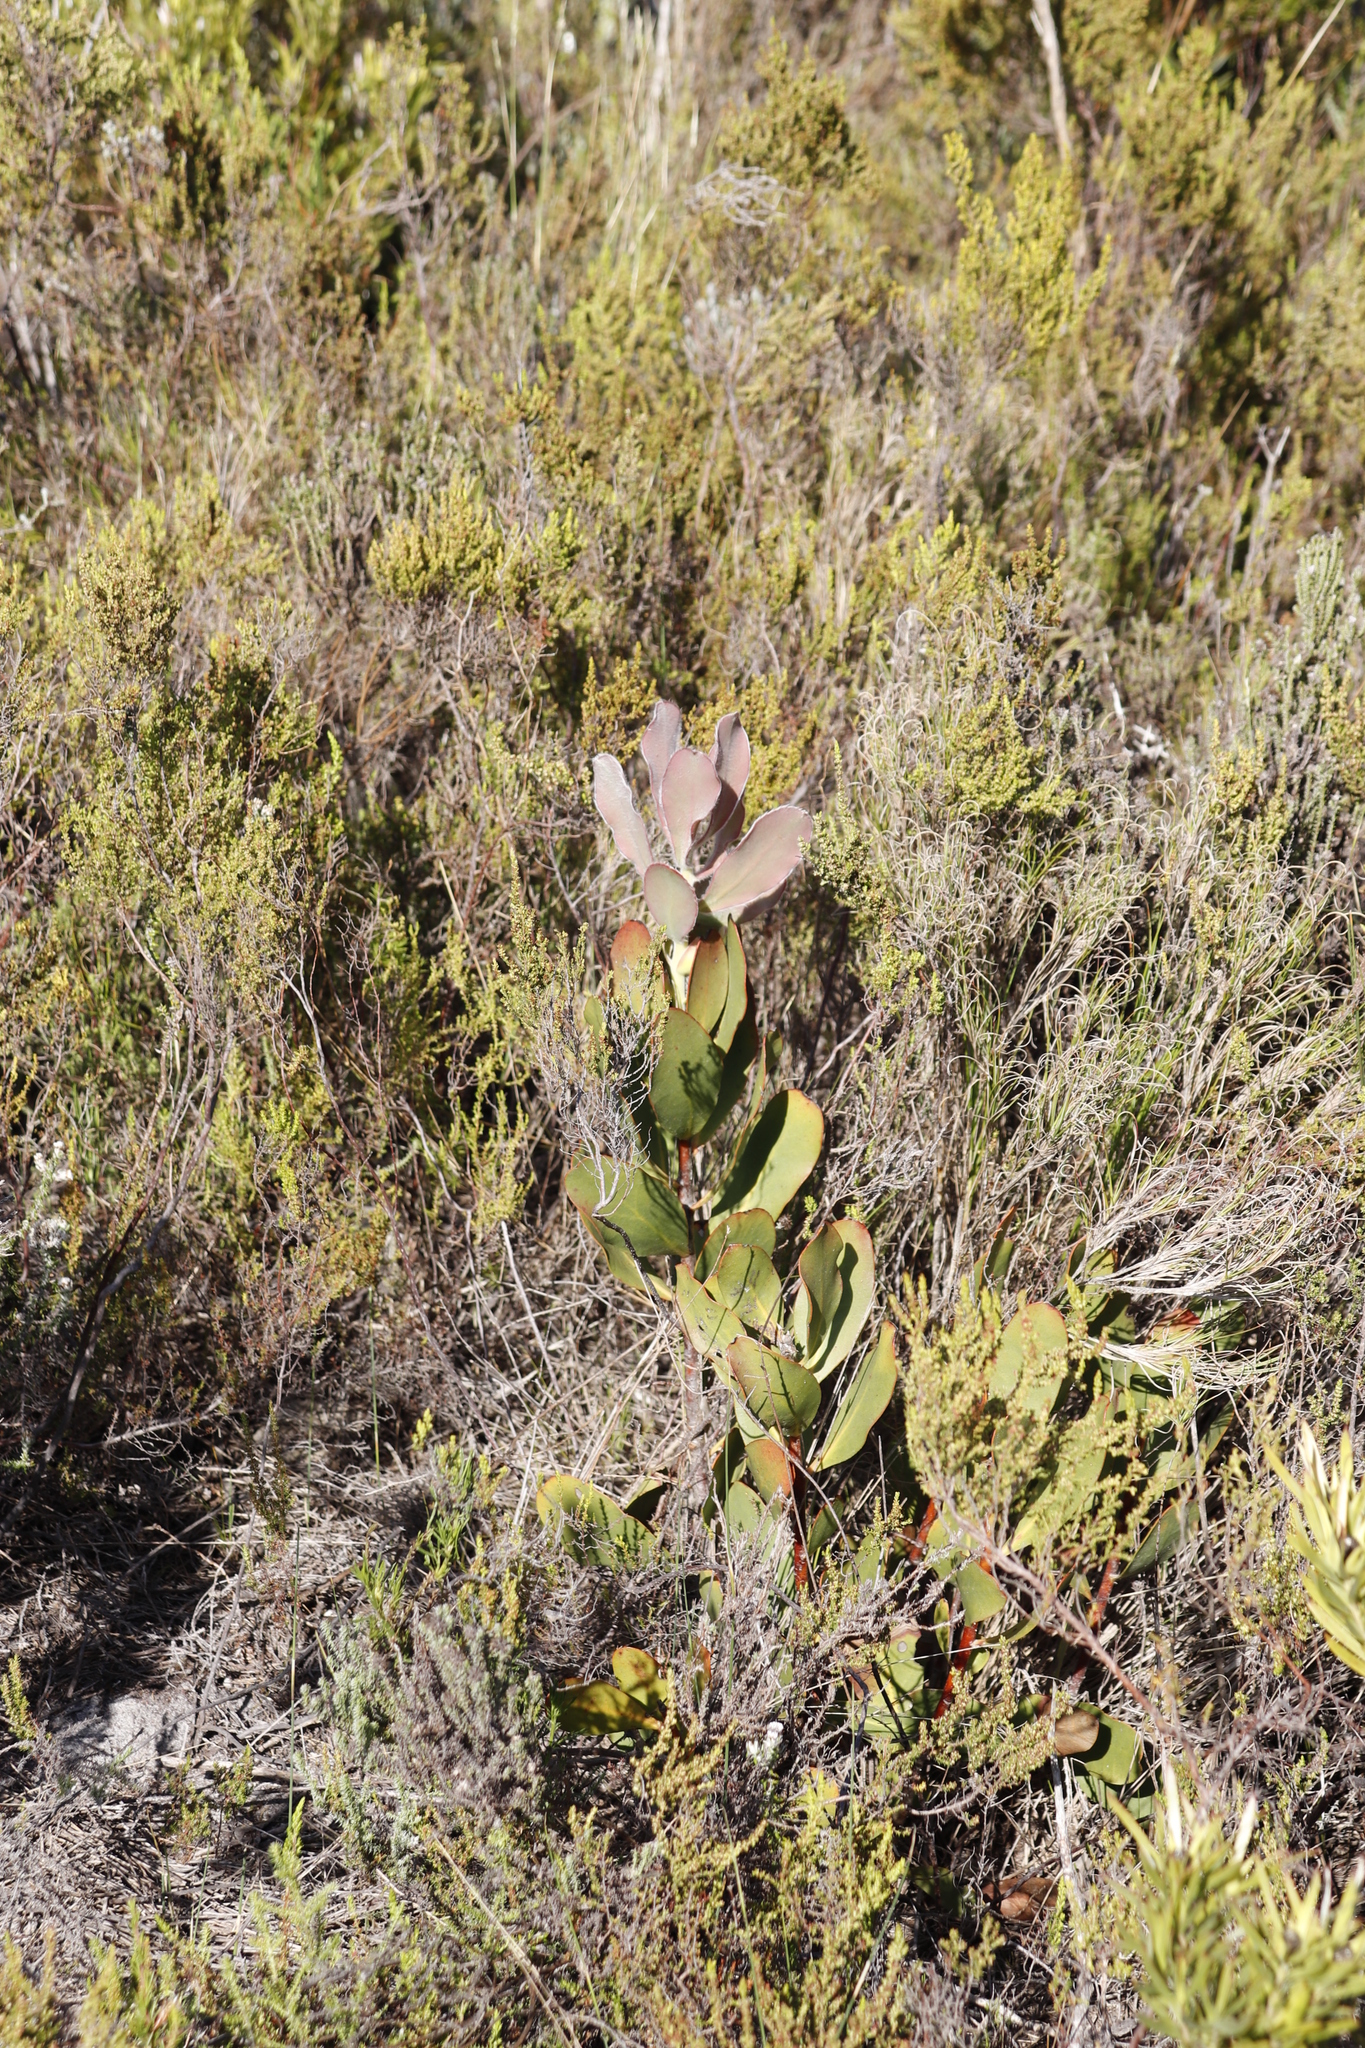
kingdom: Plantae
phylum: Tracheophyta
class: Magnoliopsida
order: Proteales
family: Proteaceae
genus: Protea
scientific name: Protea speciosa
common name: Brown-beard sugarbush
